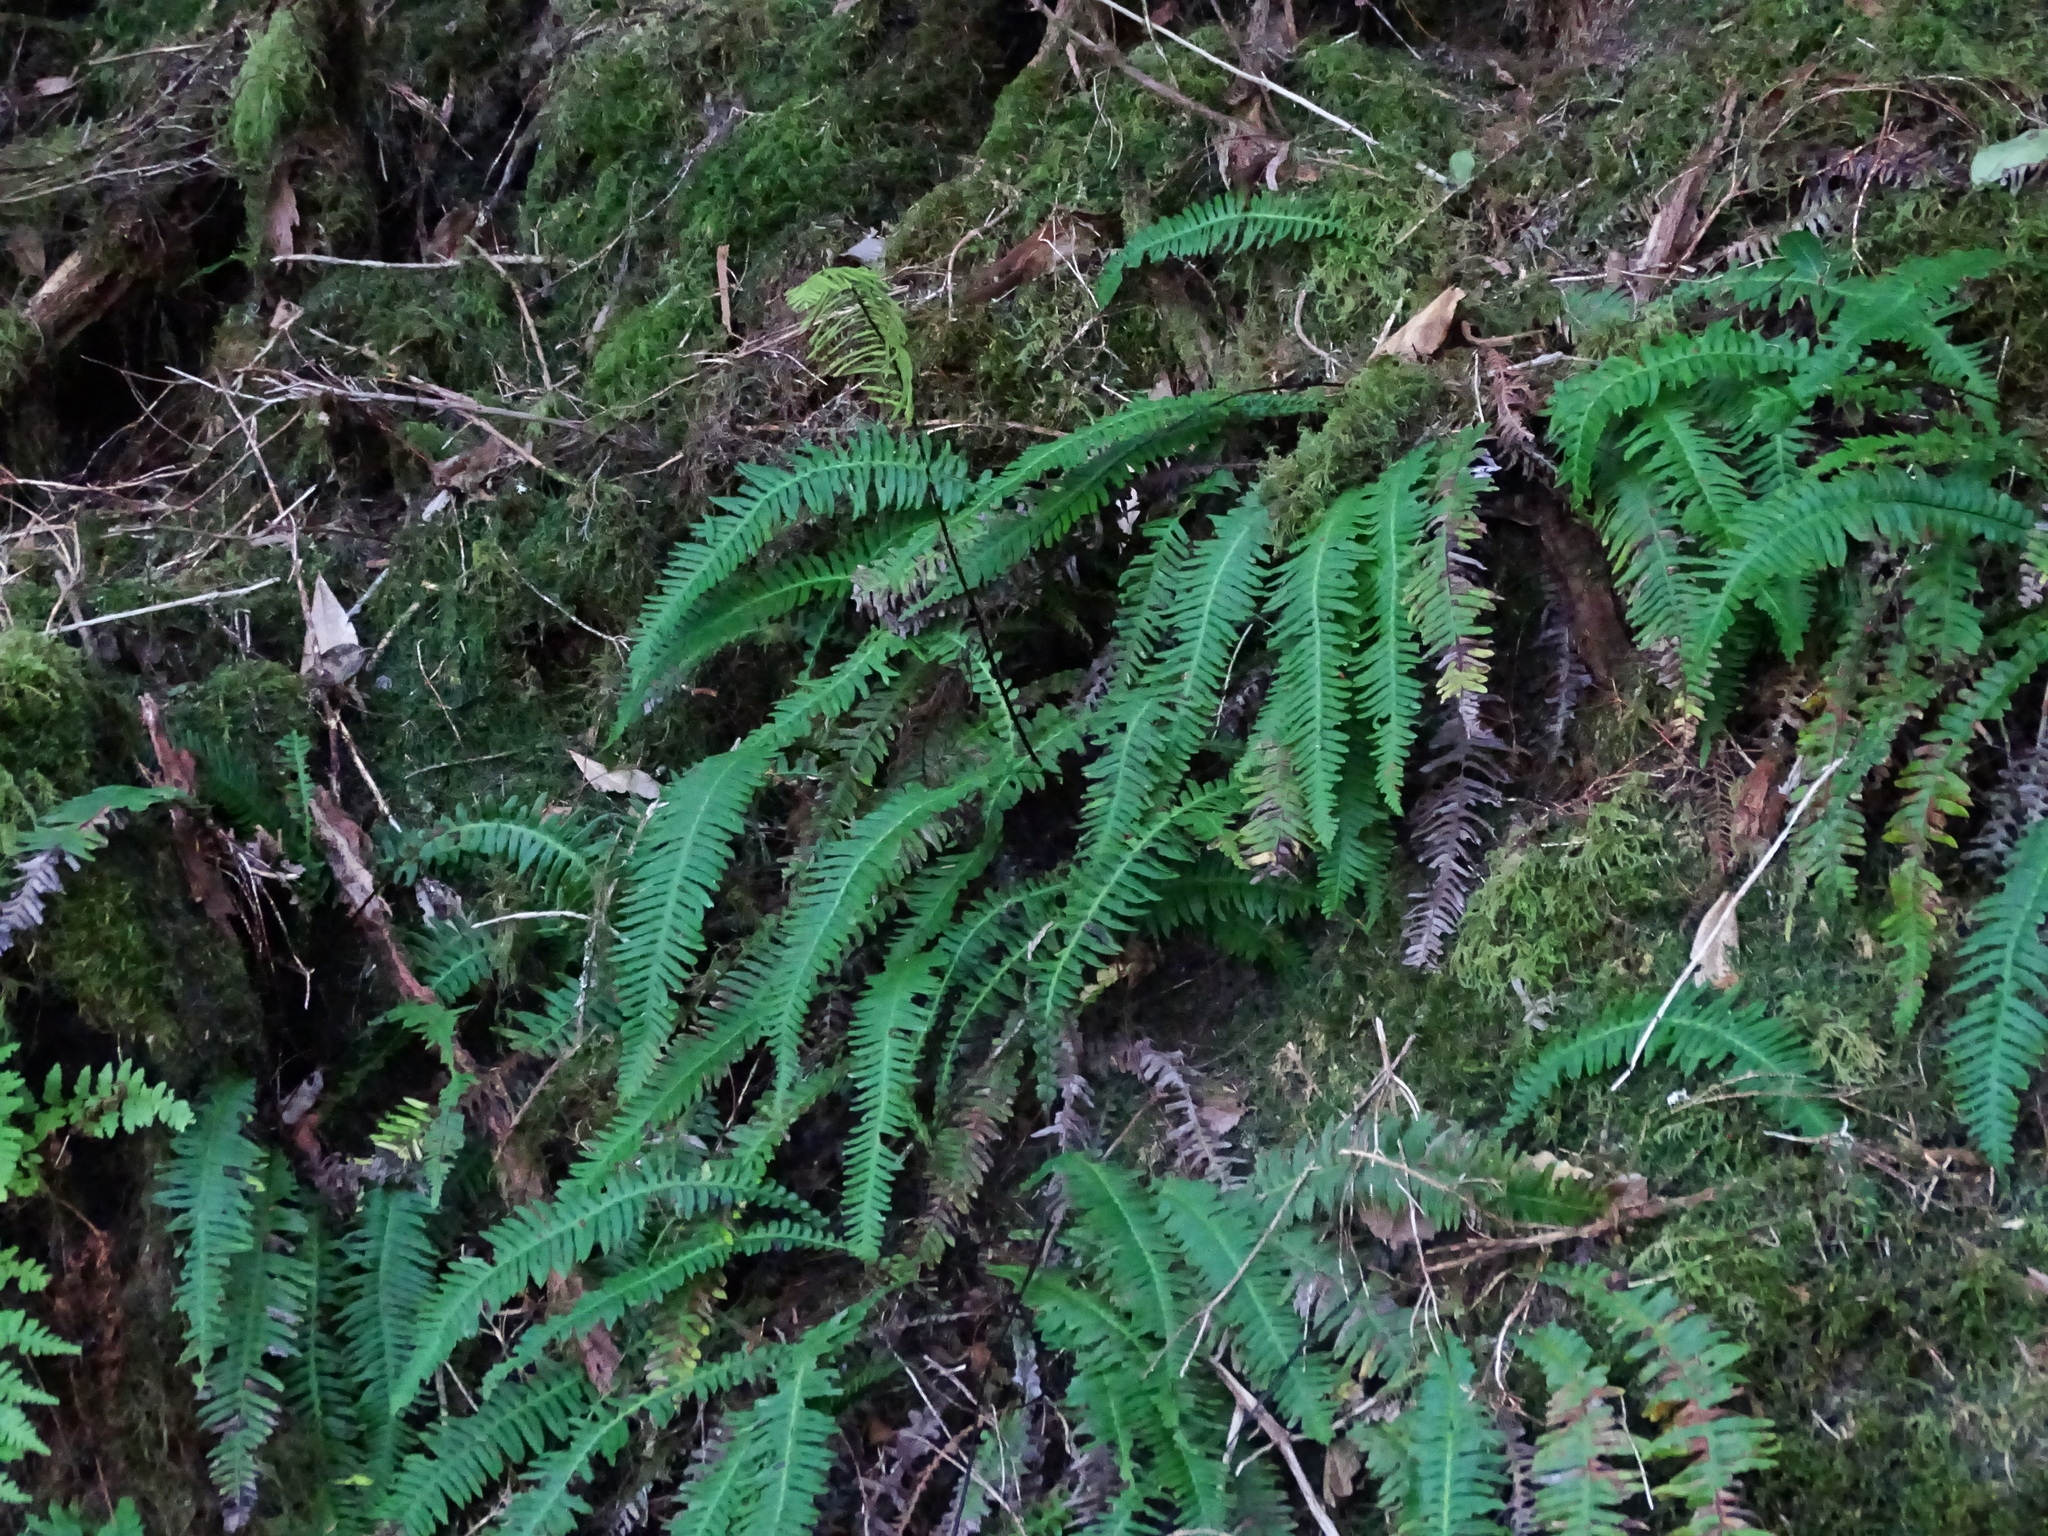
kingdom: Plantae
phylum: Tracheophyta
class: Polypodiopsida
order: Polypodiales
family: Blechnaceae
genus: Struthiopteris
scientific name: Struthiopteris spicant
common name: Deer fern
